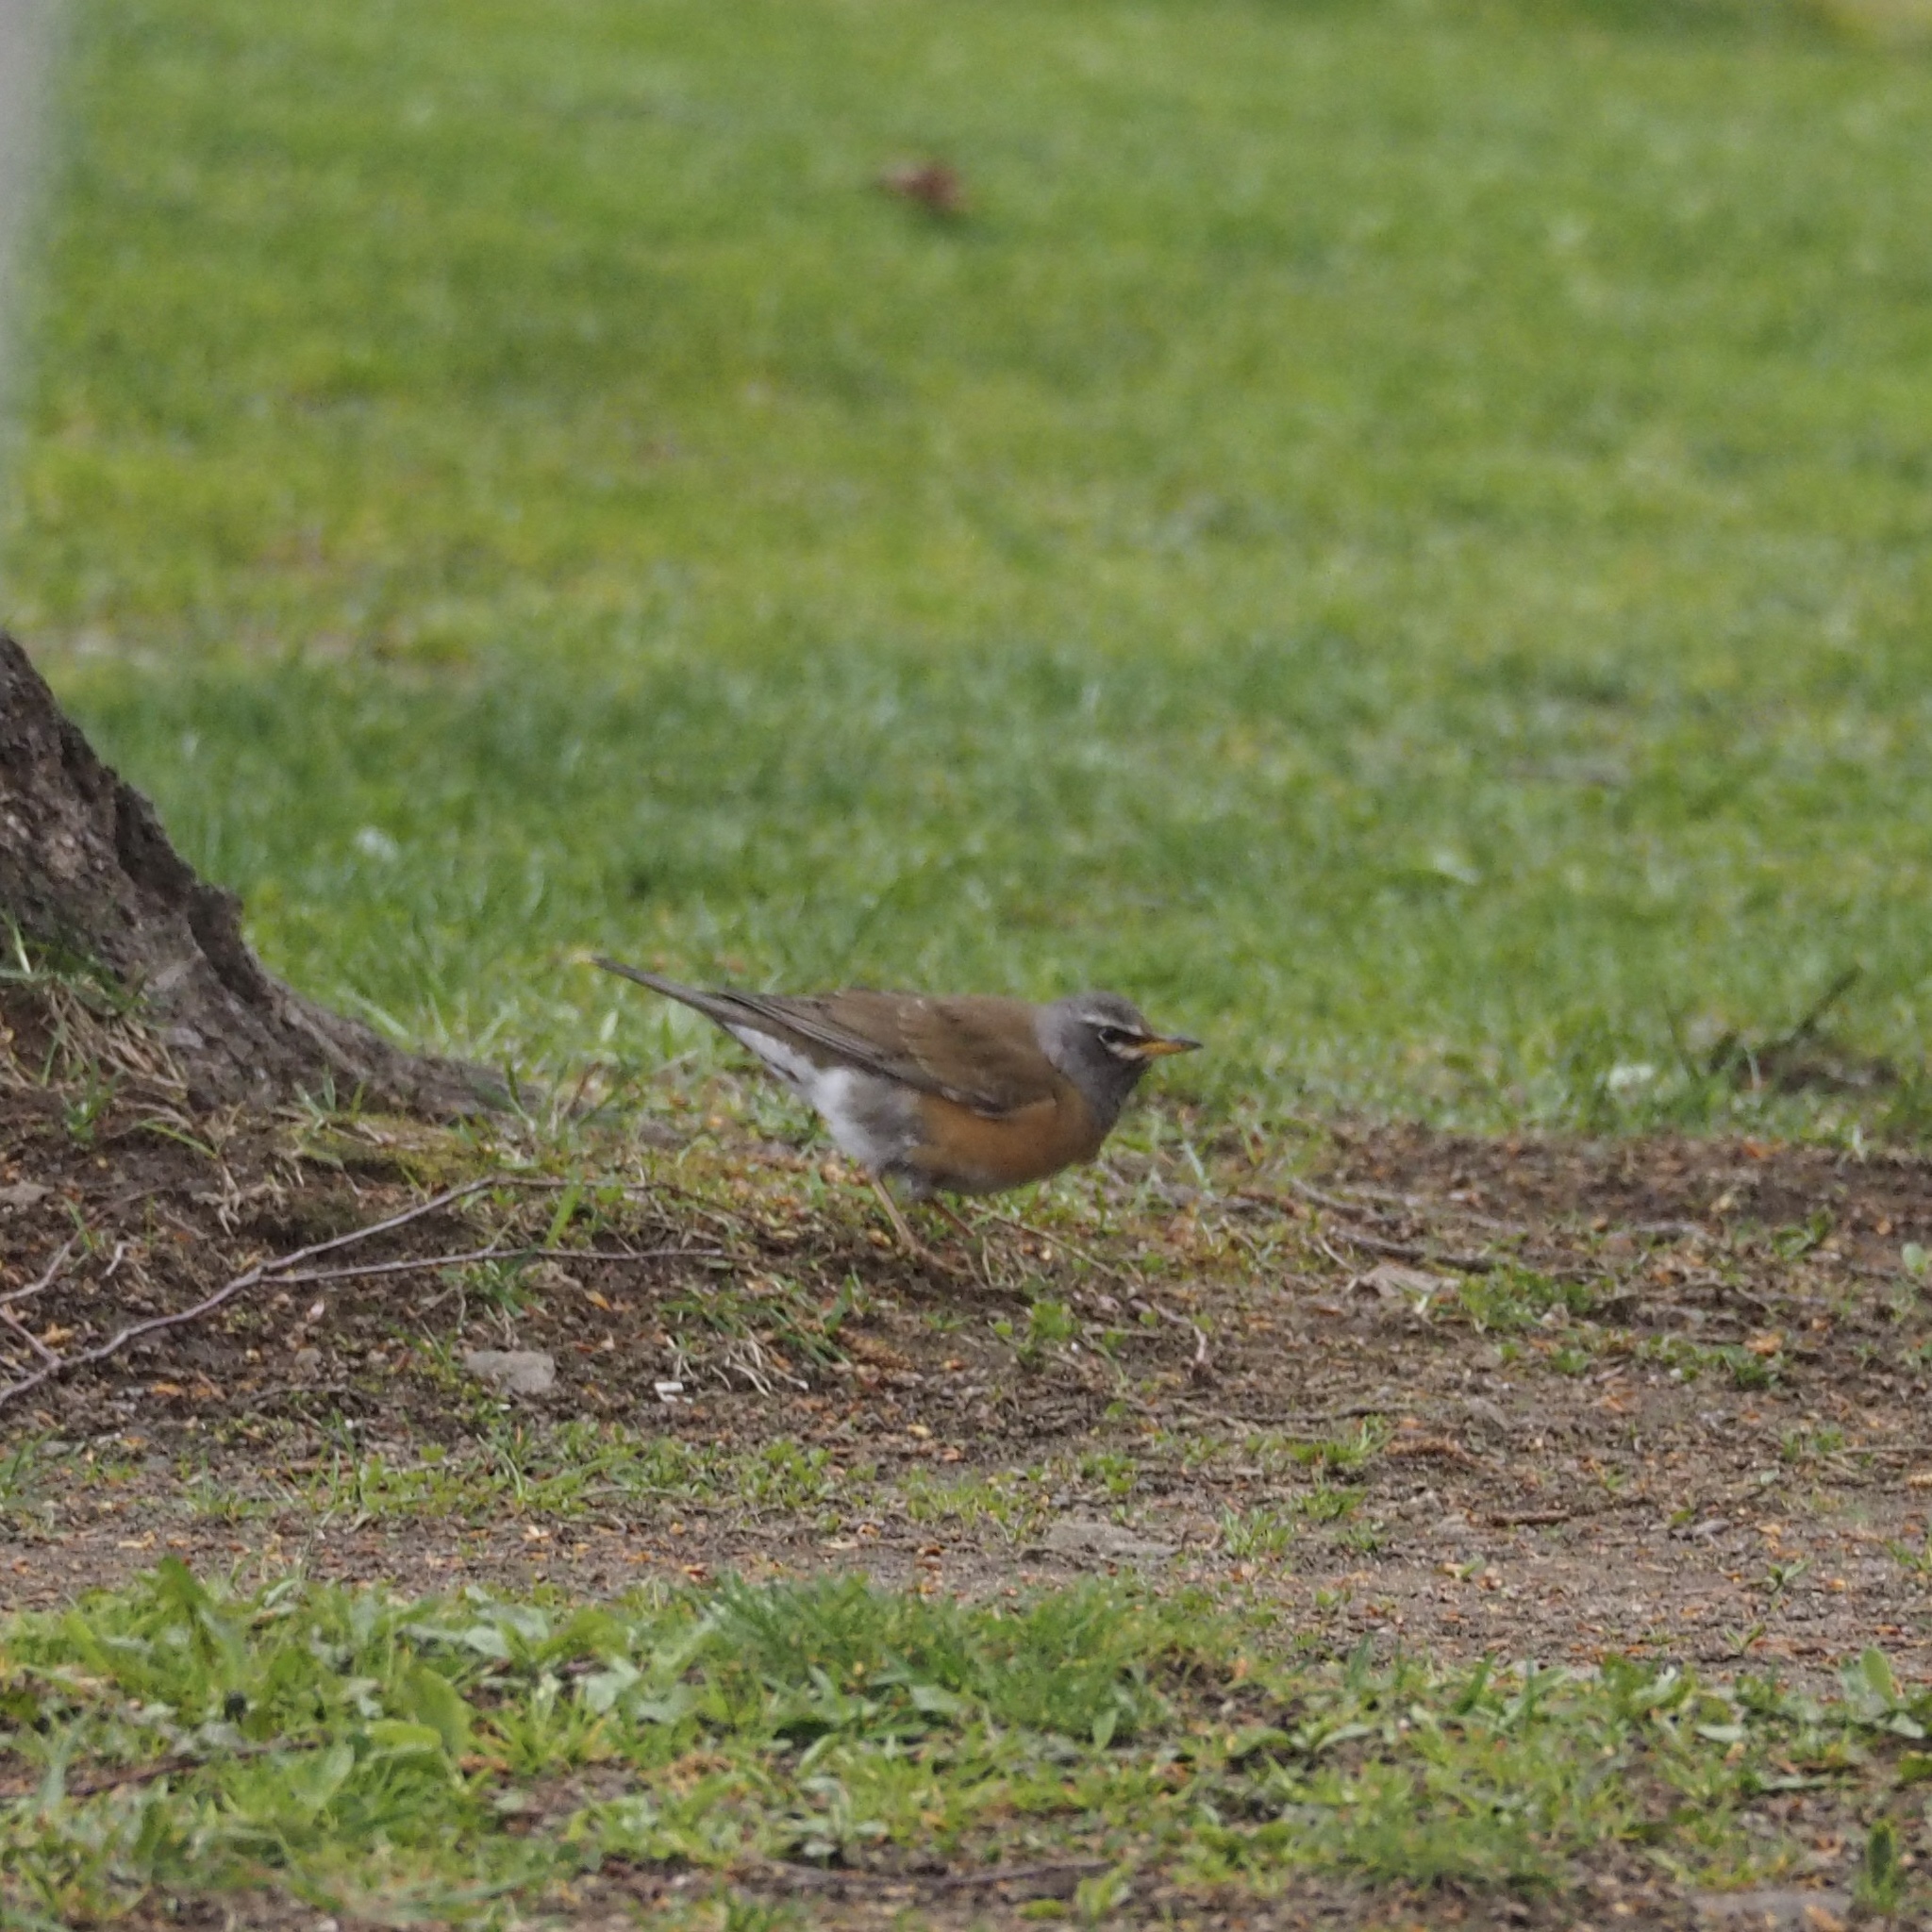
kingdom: Animalia
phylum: Chordata
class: Aves
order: Passeriformes
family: Turdidae
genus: Turdus
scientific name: Turdus obscurus
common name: Eyebrowed thrush
